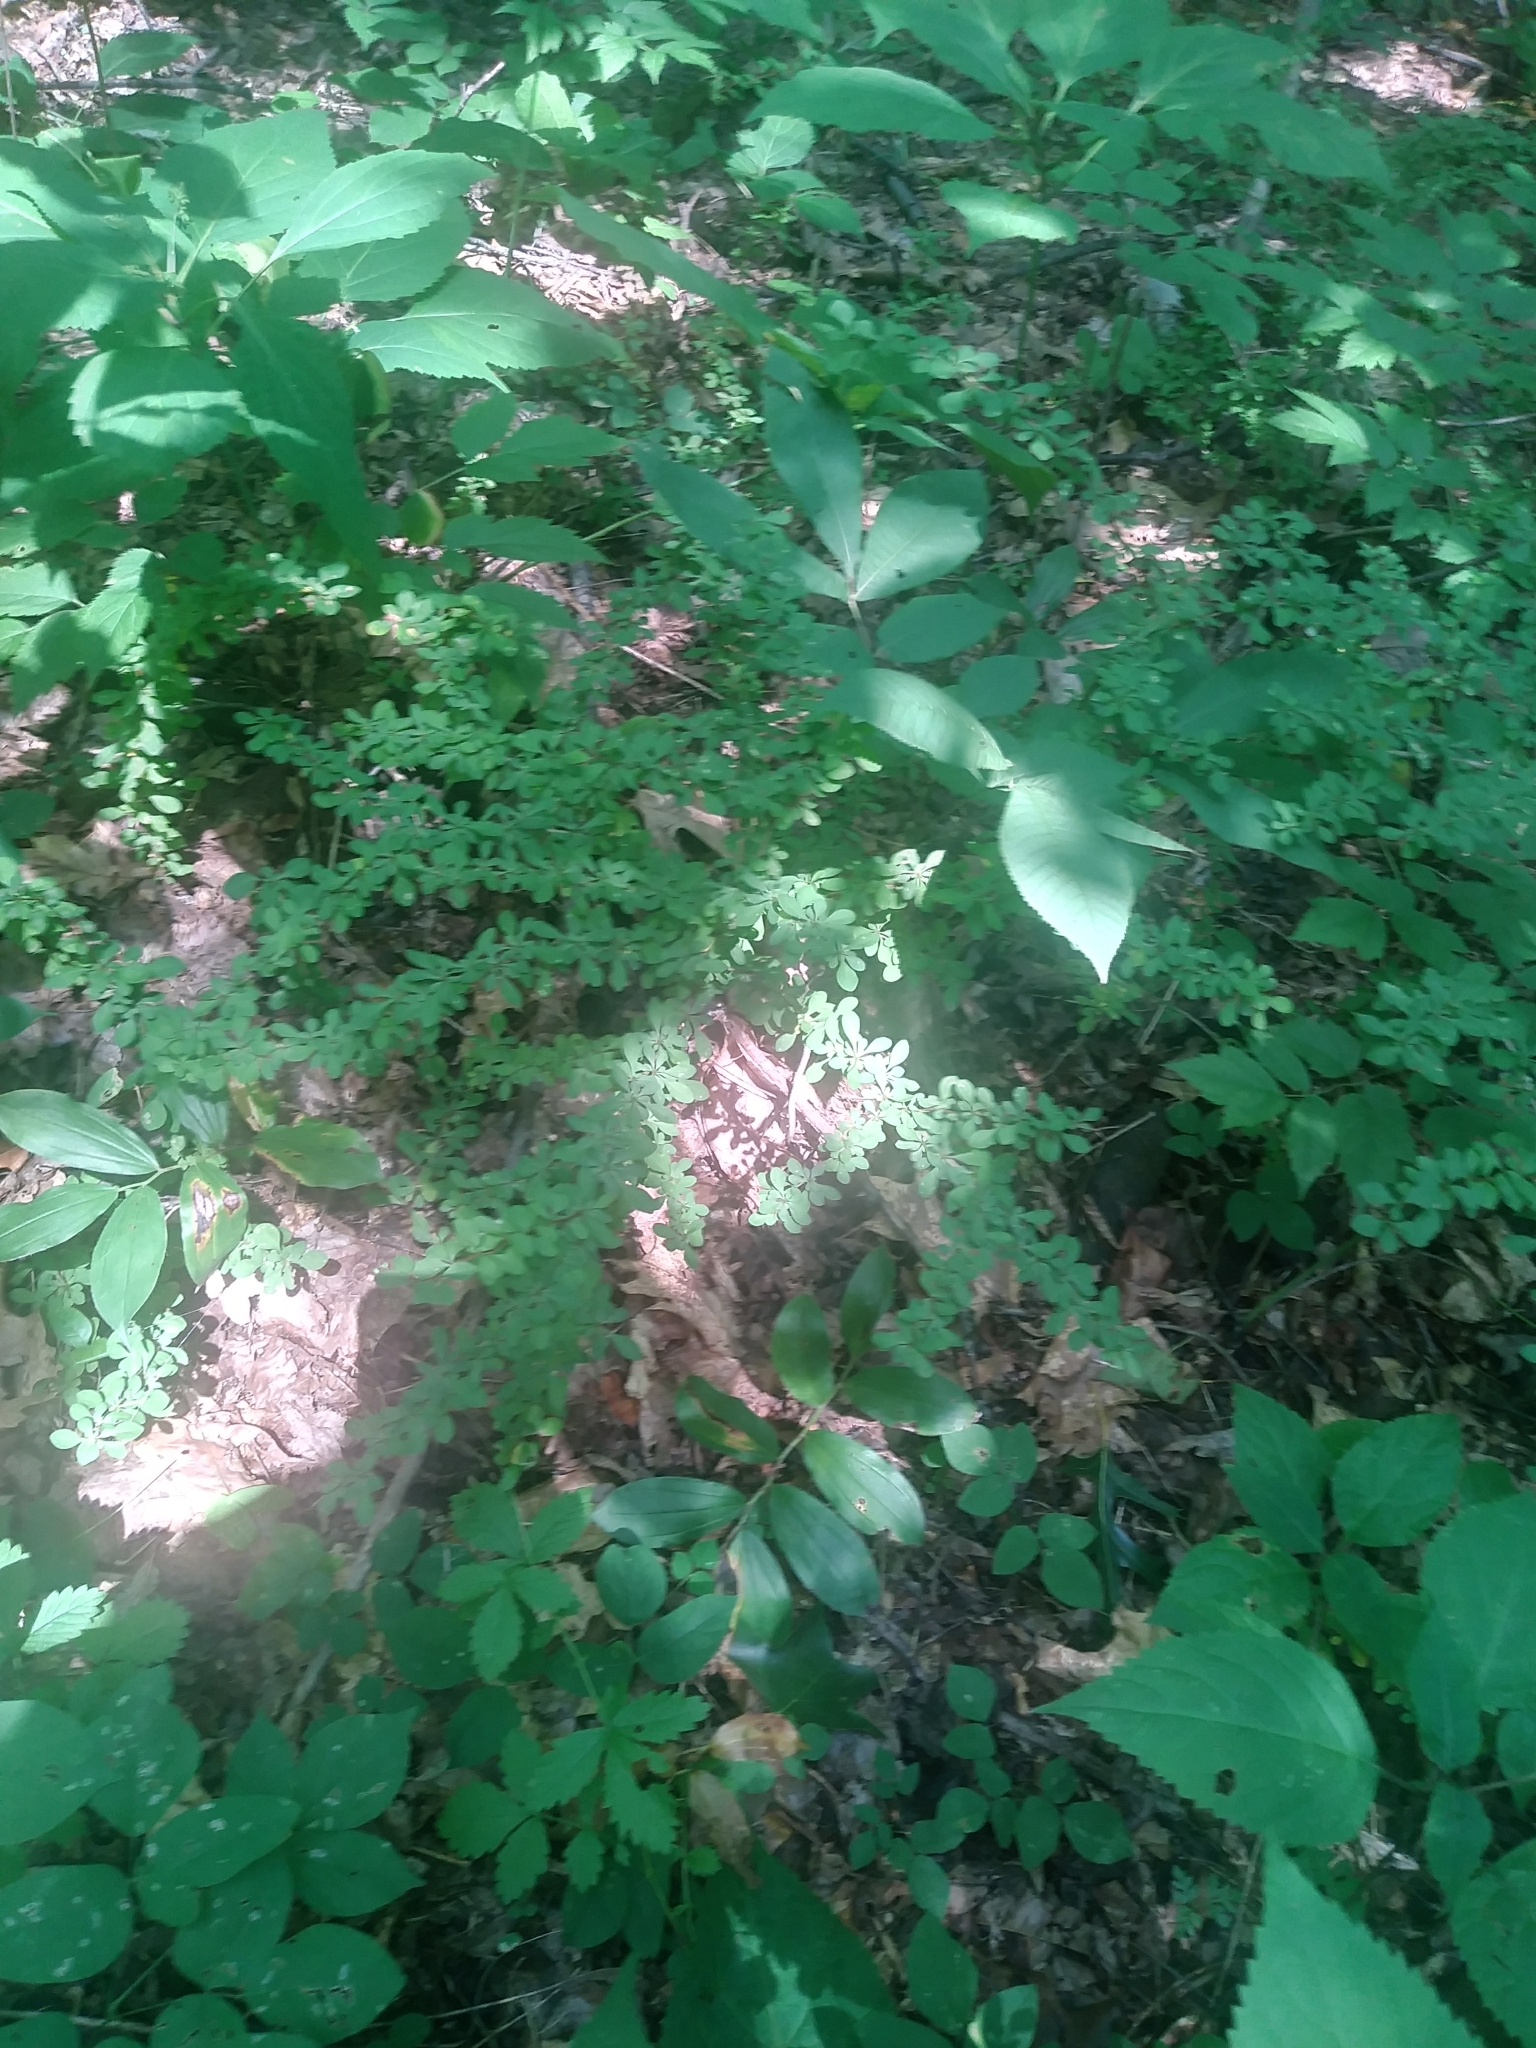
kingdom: Plantae
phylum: Tracheophyta
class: Magnoliopsida
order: Ranunculales
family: Berberidaceae
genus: Berberis
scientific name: Berberis thunbergii
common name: Japanese barberry
